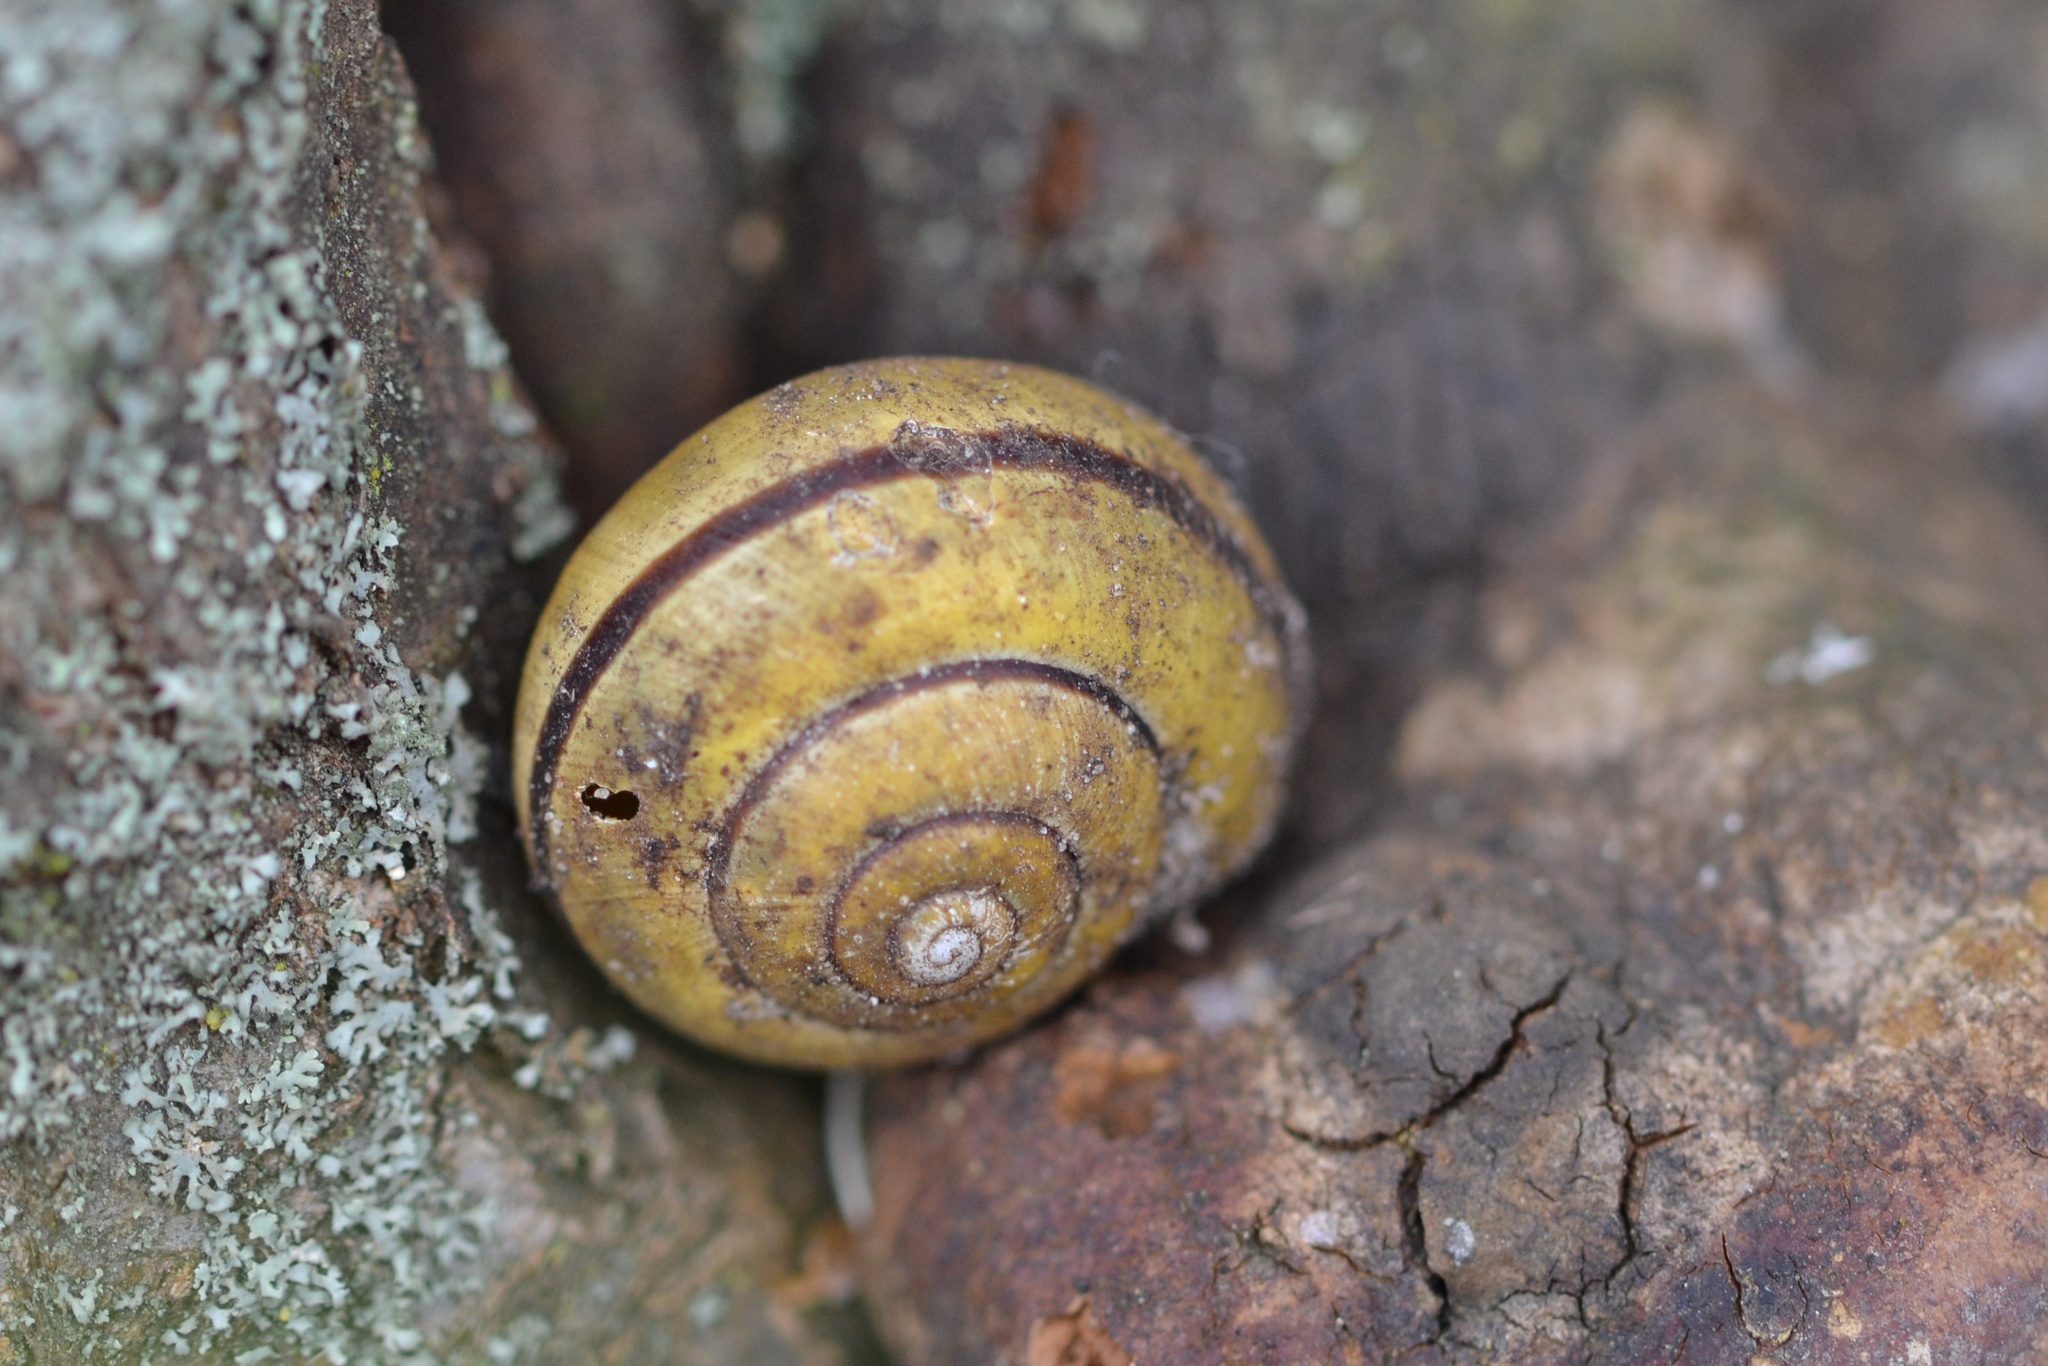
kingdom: Animalia
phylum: Mollusca
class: Gastropoda
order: Stylommatophora
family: Helicidae
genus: Cepaea
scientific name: Cepaea nemoralis
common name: Grovesnail
